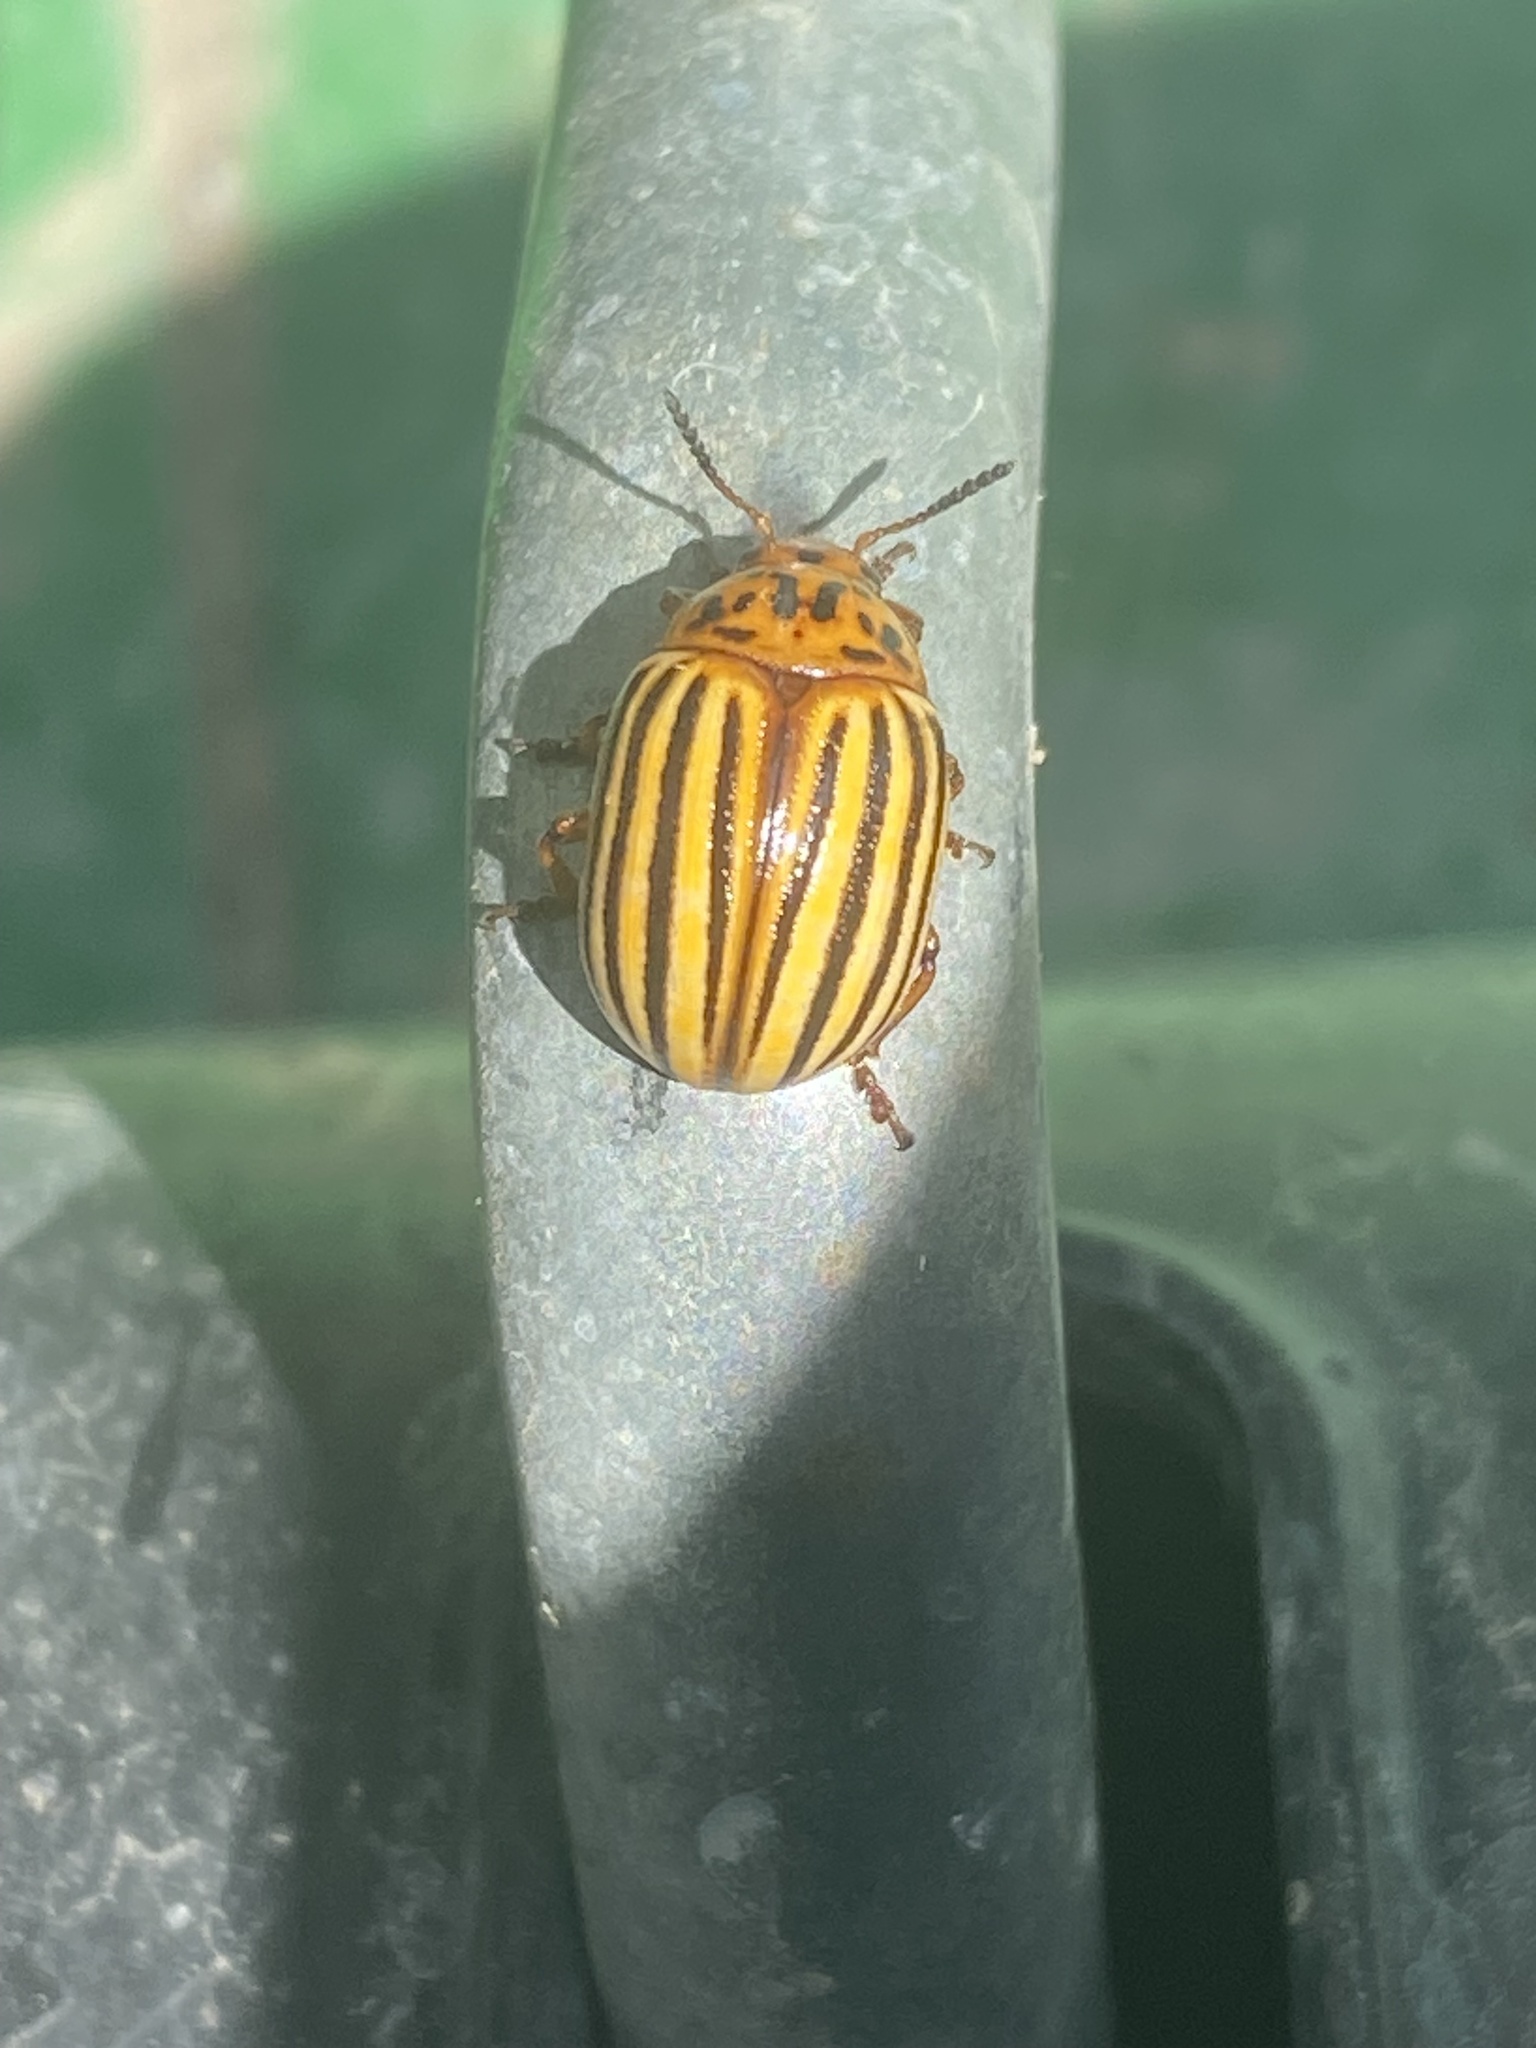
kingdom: Animalia
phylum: Arthropoda
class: Insecta
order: Coleoptera
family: Chrysomelidae
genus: Leptinotarsa
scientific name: Leptinotarsa decemlineata
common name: Colorado potato beetle
